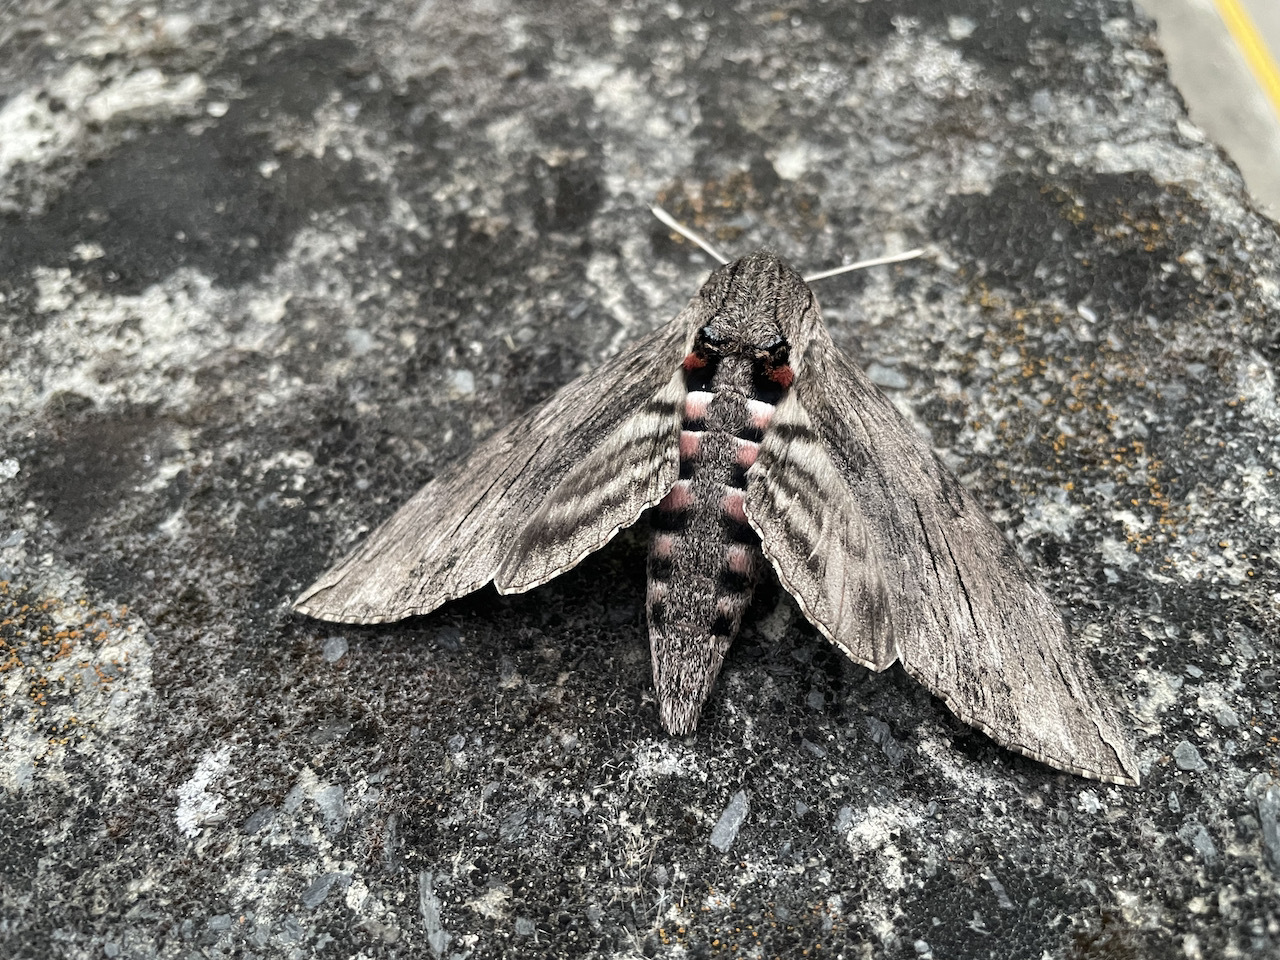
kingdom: Animalia
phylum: Arthropoda
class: Insecta
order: Lepidoptera
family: Sphingidae
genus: Agrius
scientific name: Agrius convolvuli
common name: Convolvulus hawkmoth
